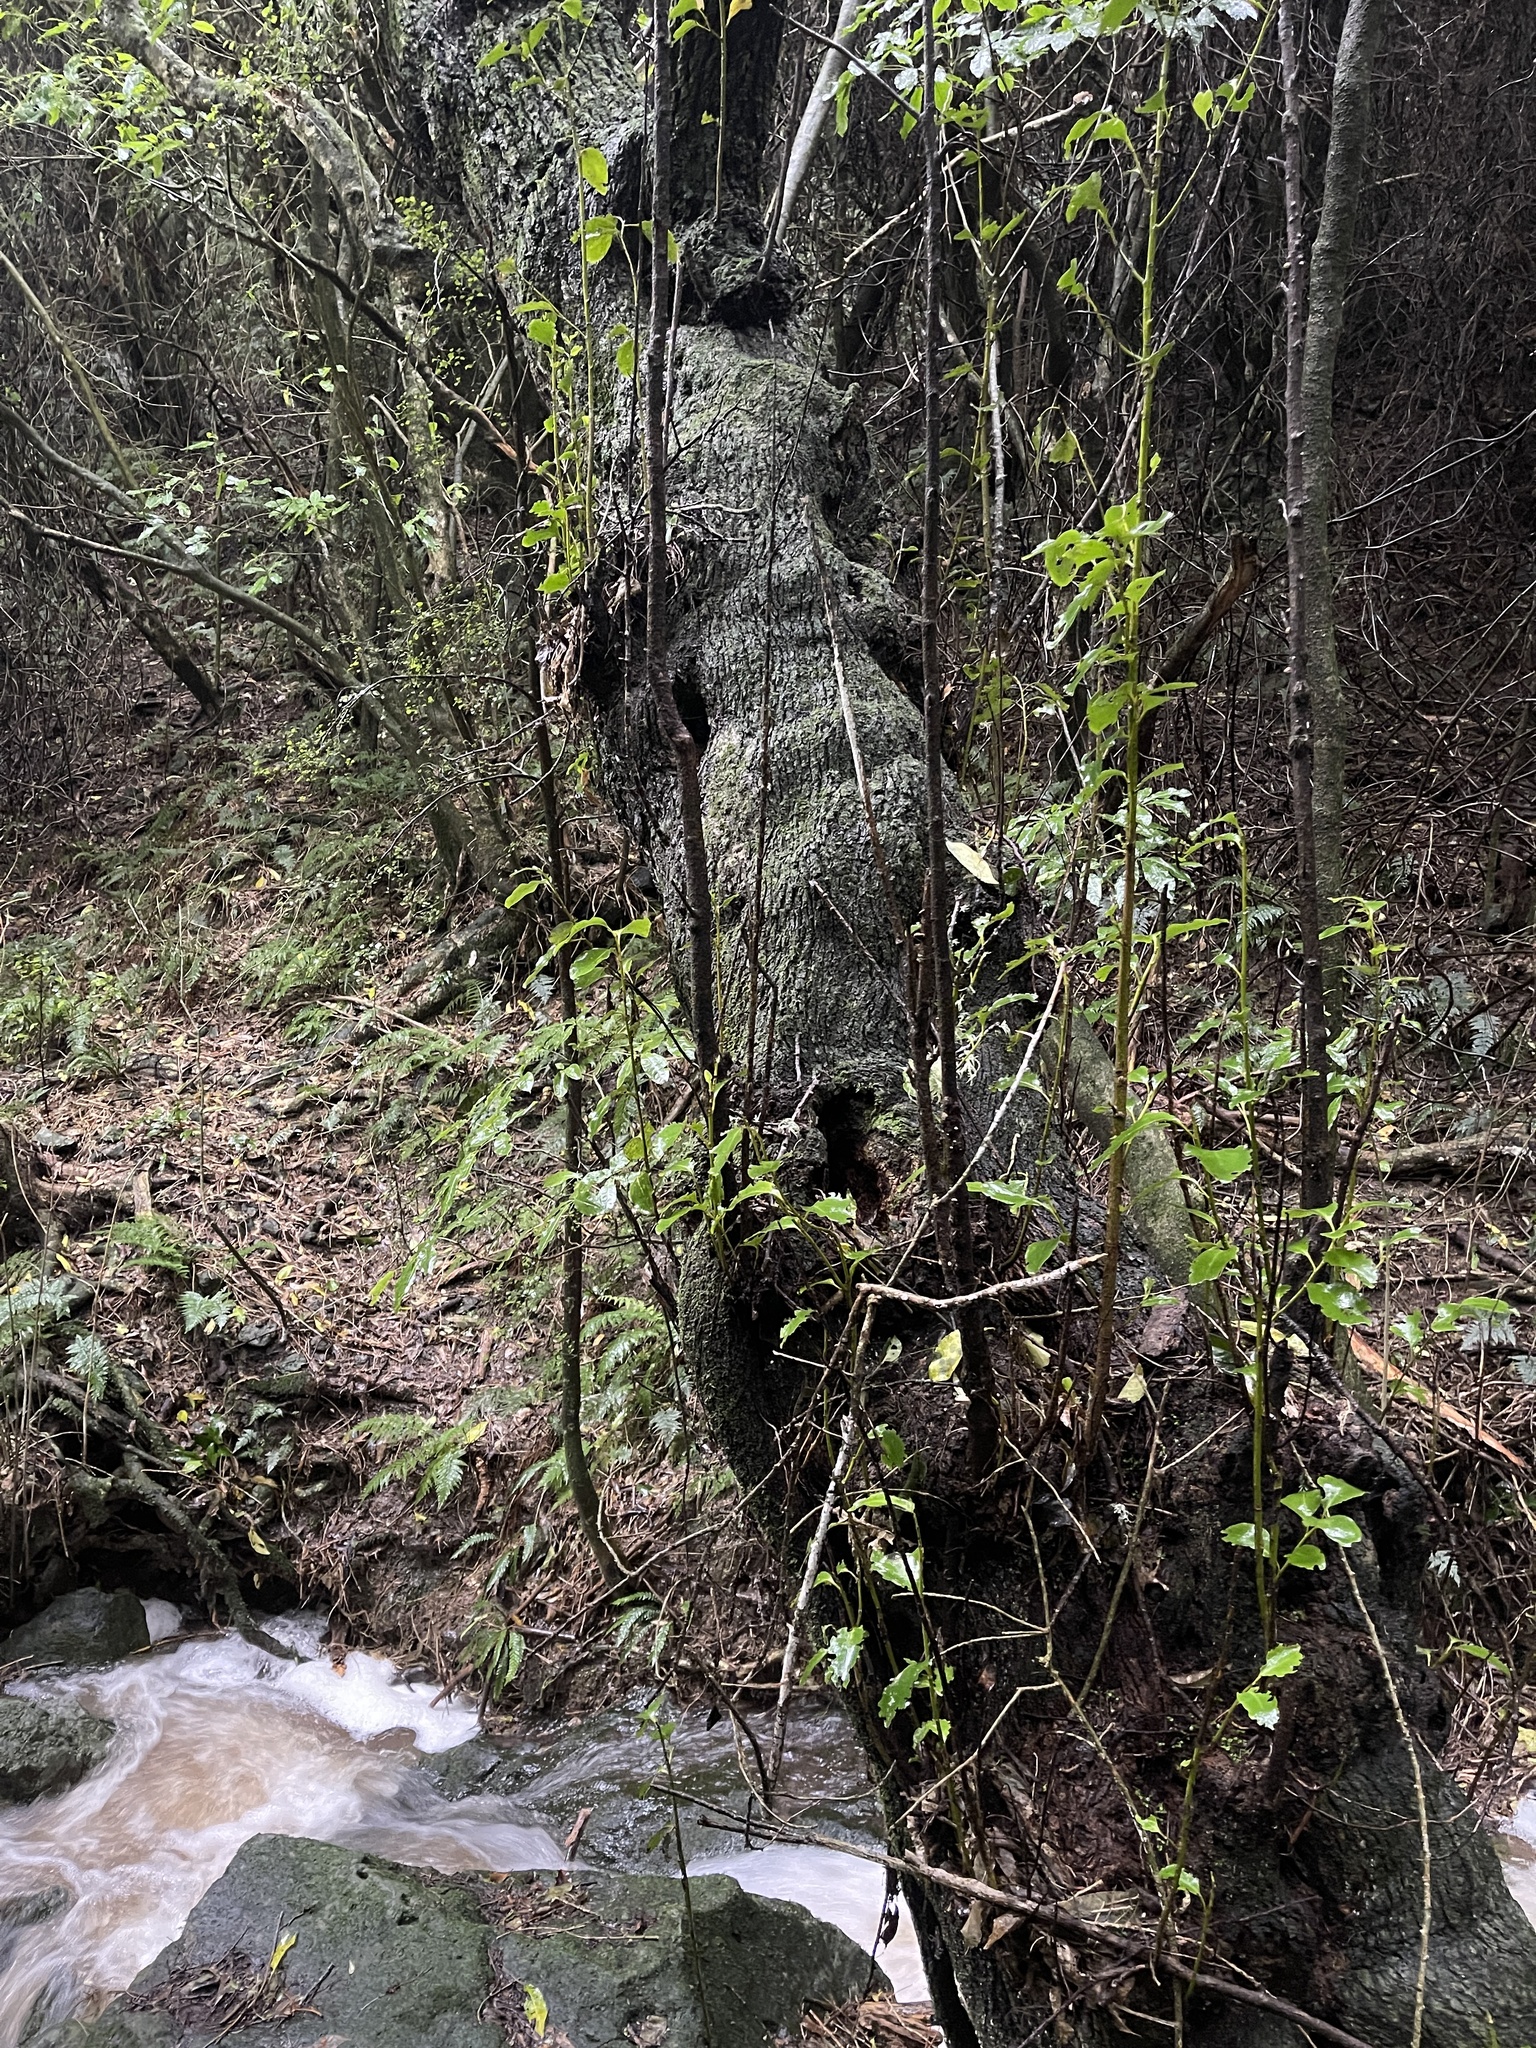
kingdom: Plantae
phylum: Tracheophyta
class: Magnoliopsida
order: Apiales
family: Griseliniaceae
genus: Griselinia
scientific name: Griselinia littoralis
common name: New zealand broadleaf
